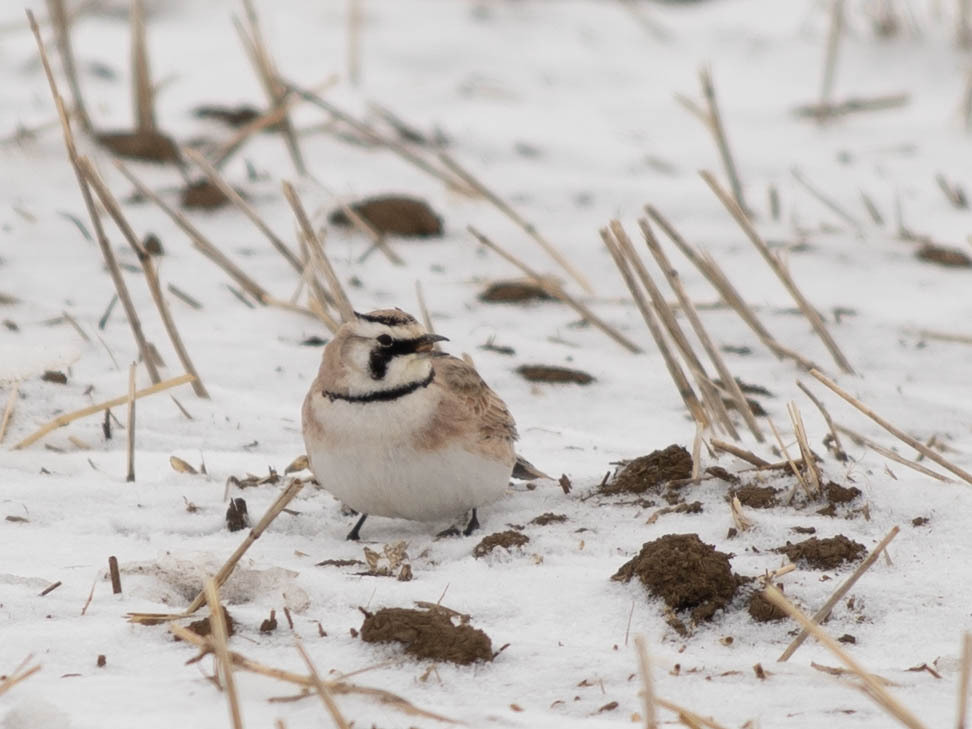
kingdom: Animalia
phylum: Chordata
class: Aves
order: Passeriformes
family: Alaudidae
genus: Eremophila
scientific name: Eremophila alpestris
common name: Horned lark
